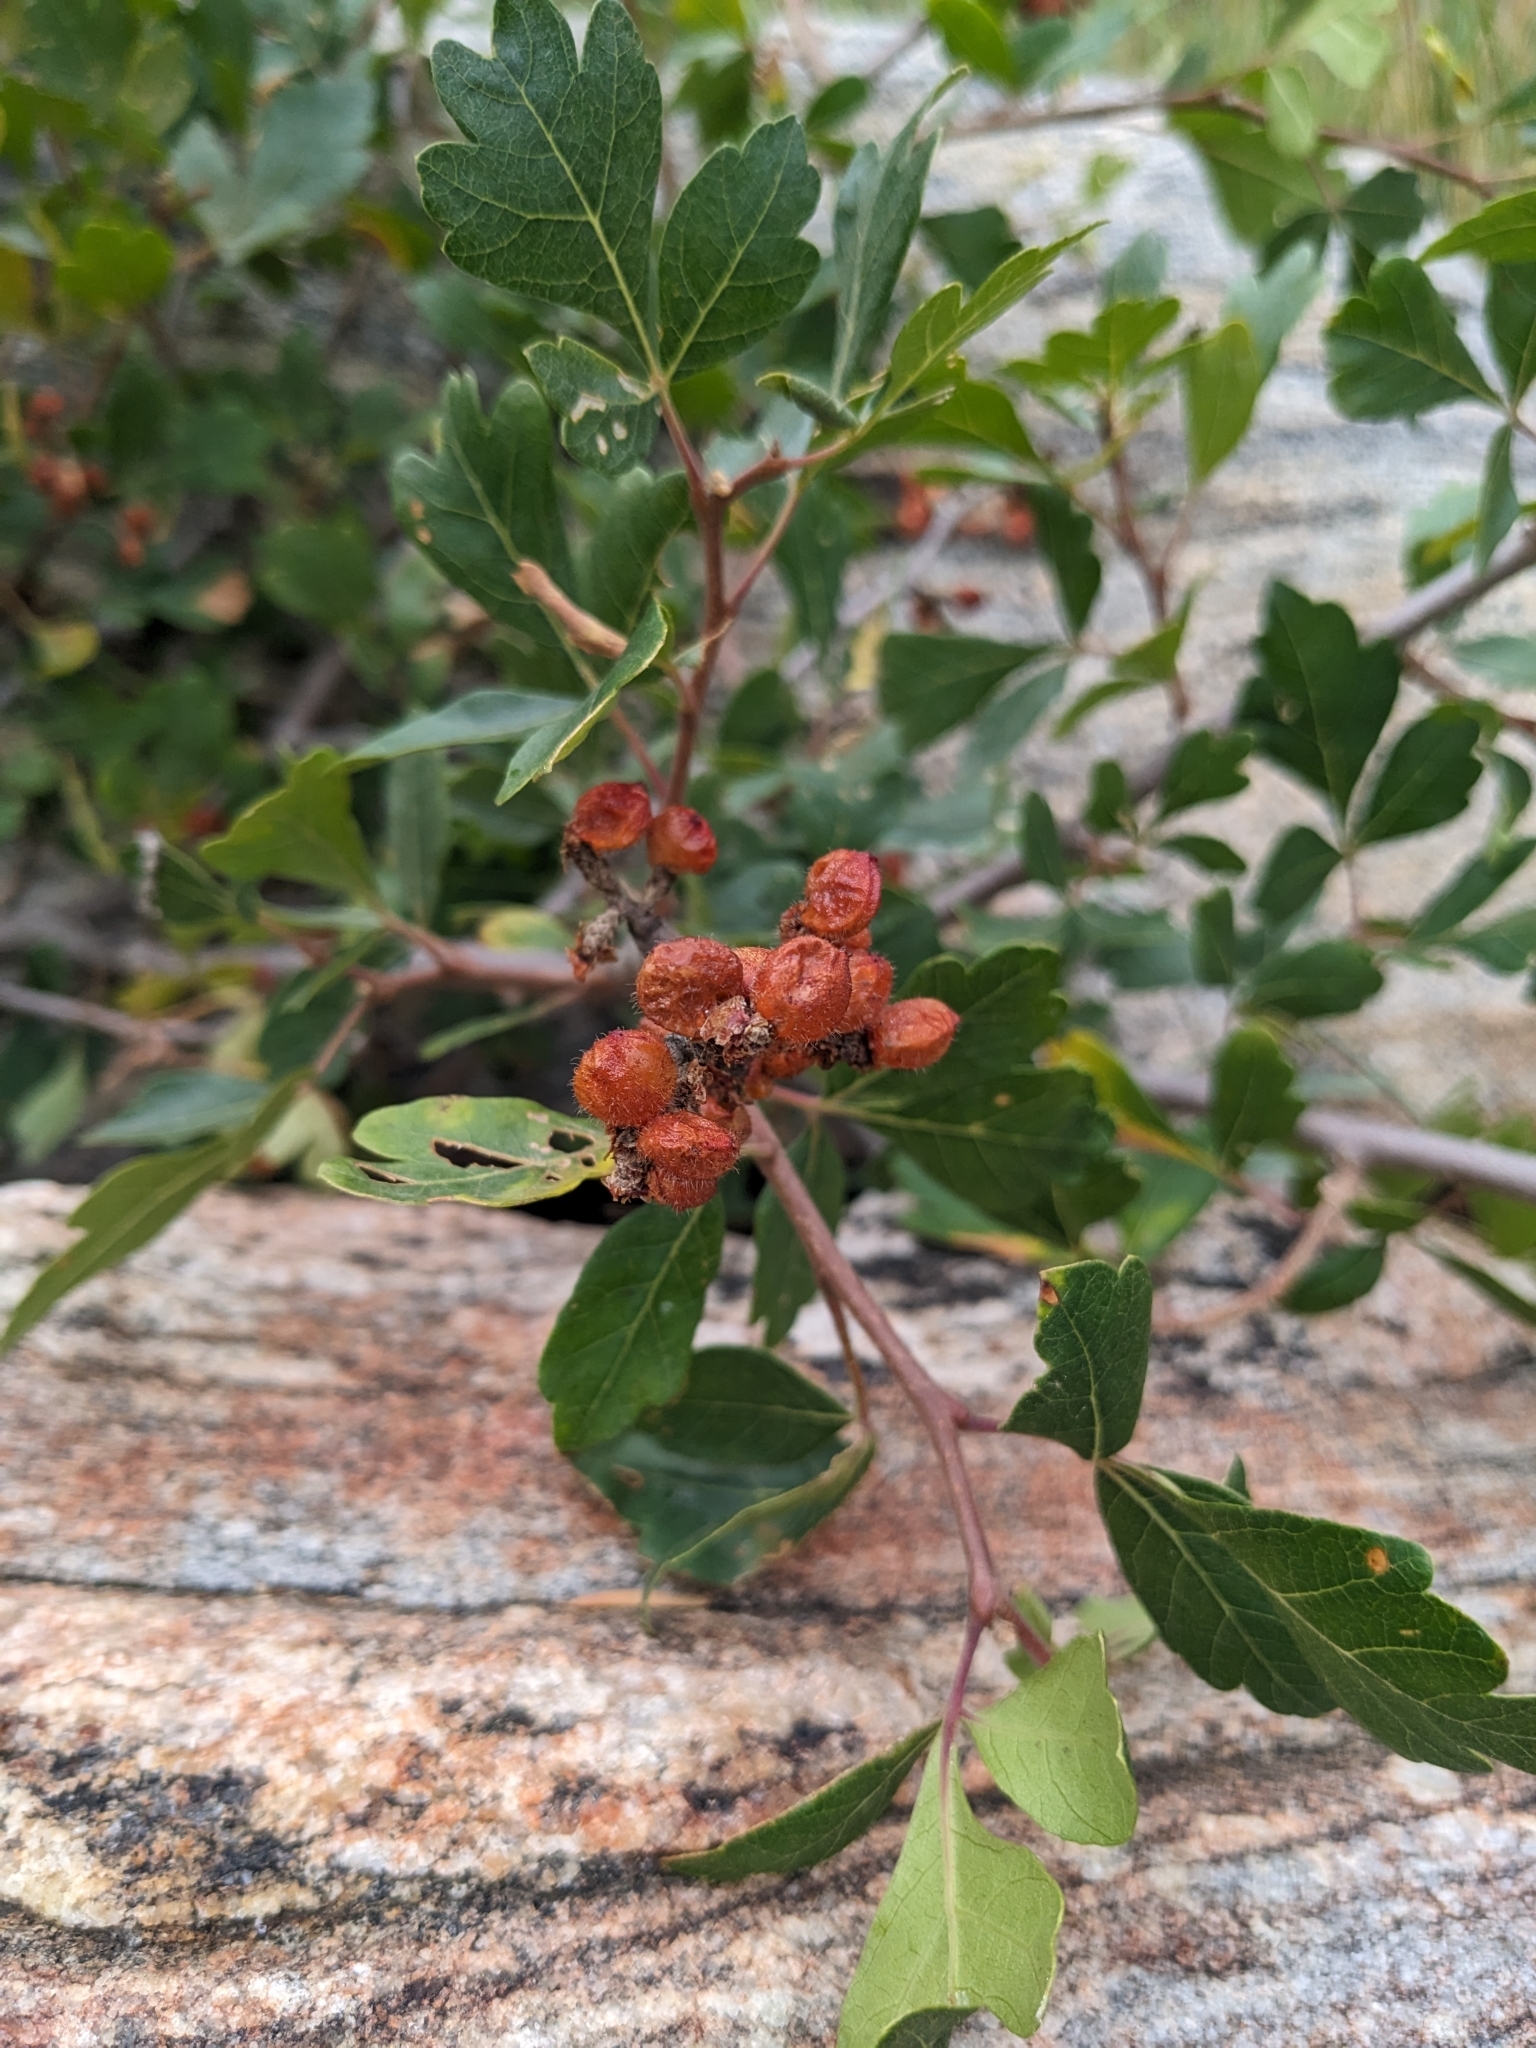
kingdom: Plantae
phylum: Tracheophyta
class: Magnoliopsida
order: Sapindales
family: Anacardiaceae
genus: Rhus
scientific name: Rhus aromatica
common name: Aromatic sumac
